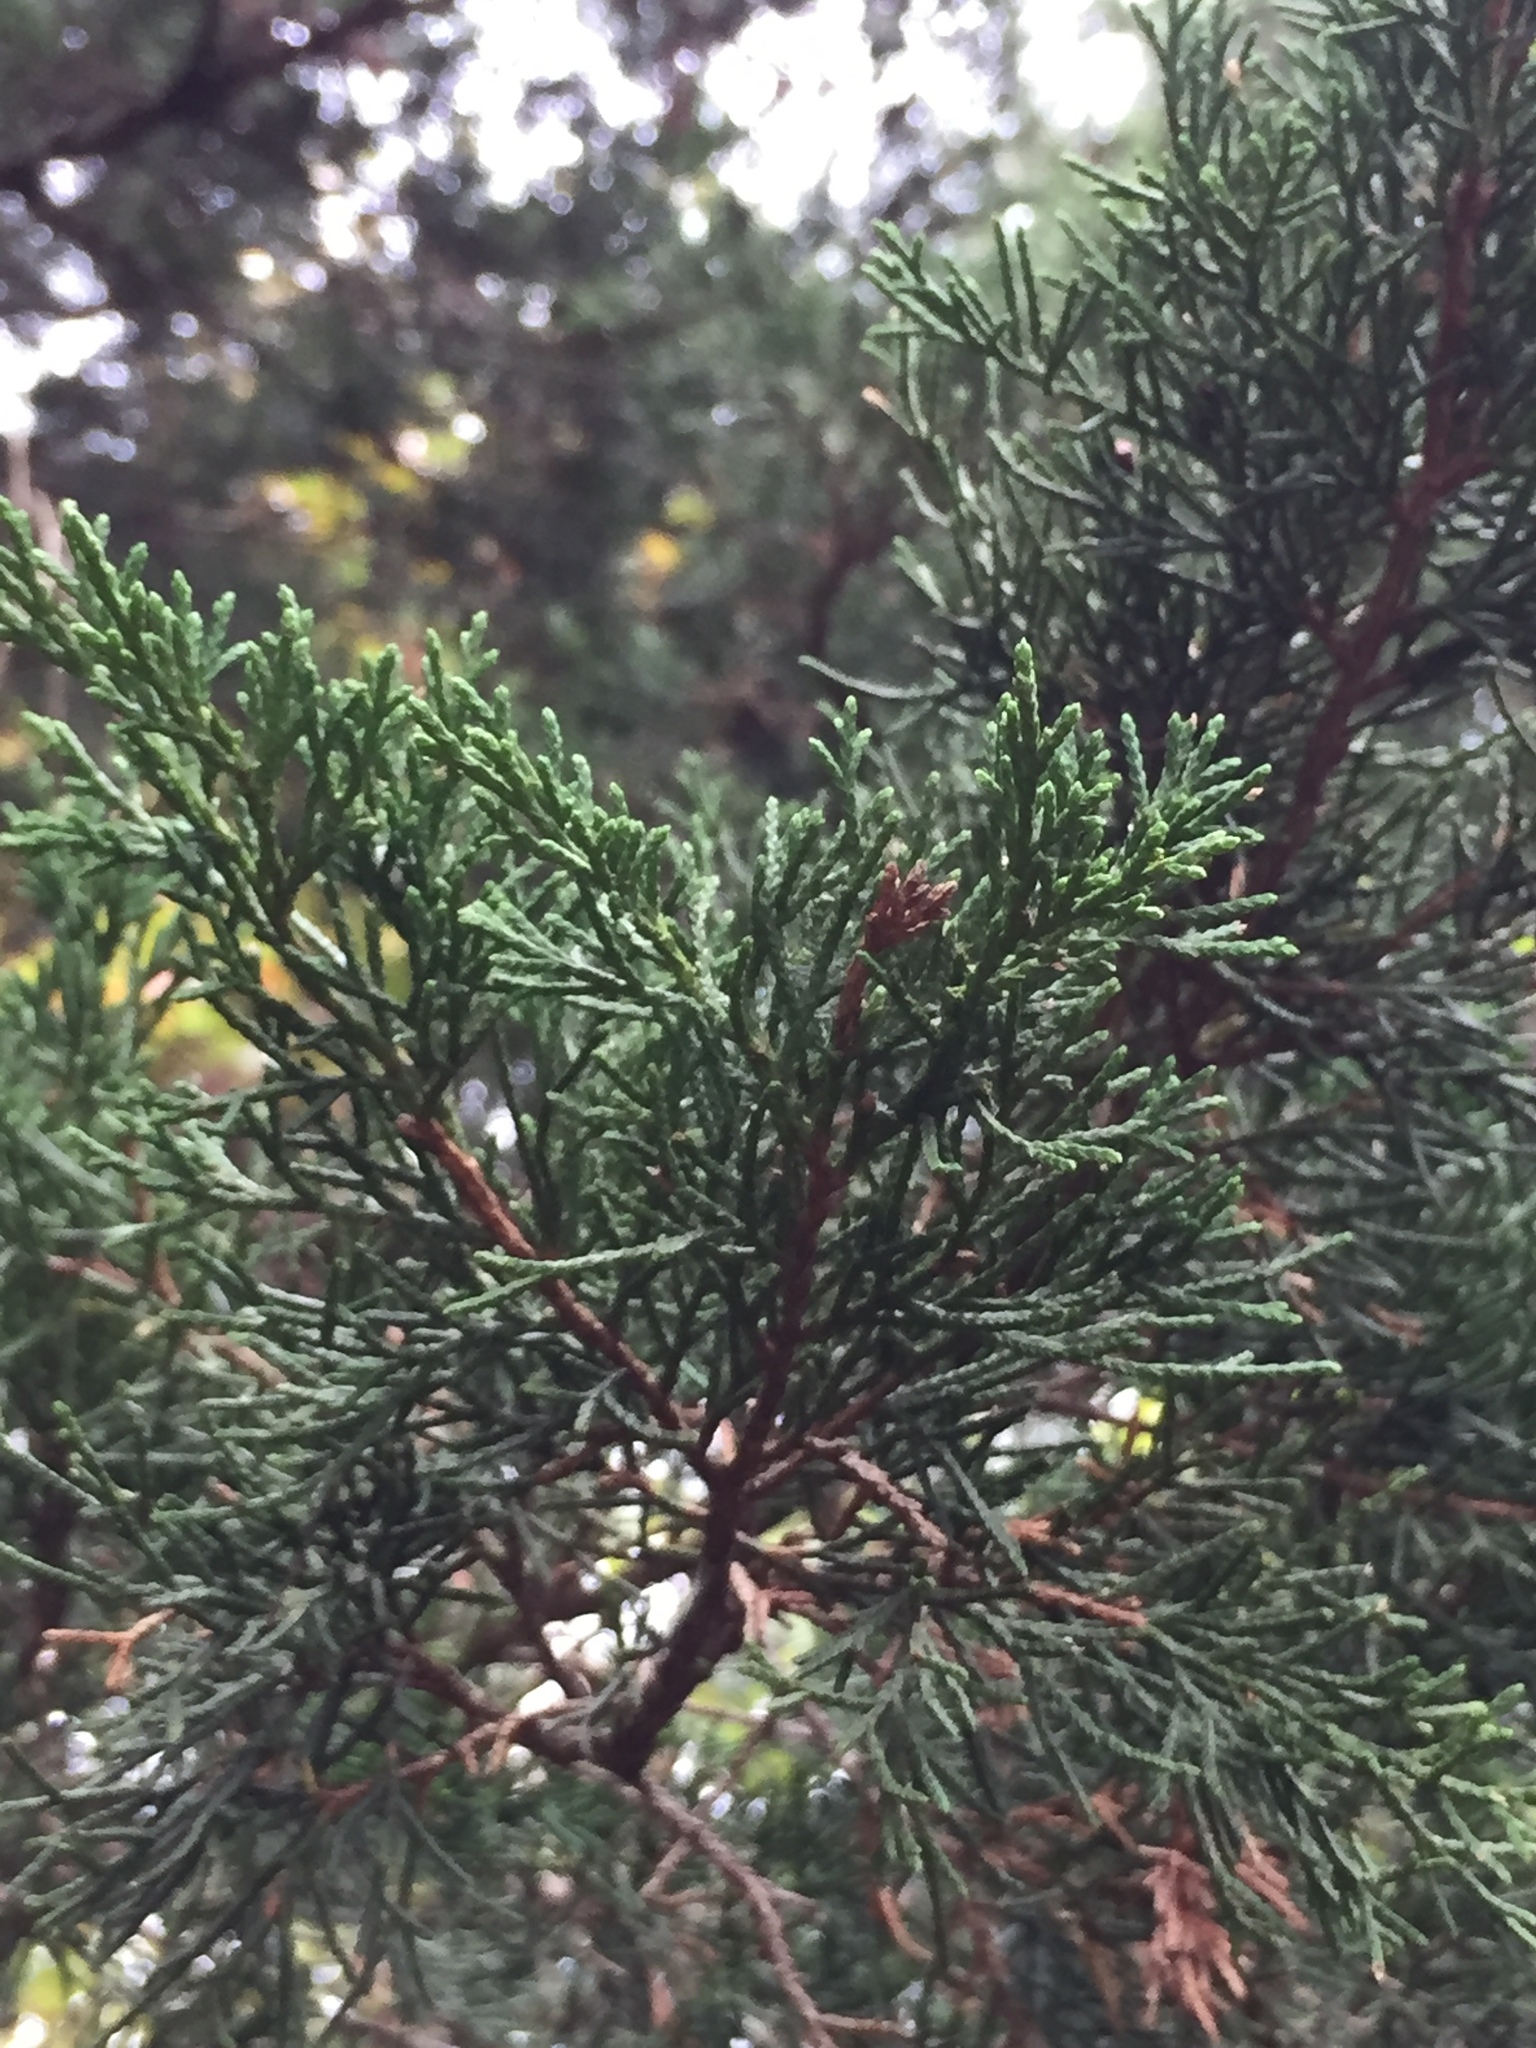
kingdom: Plantae
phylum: Tracheophyta
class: Pinopsida
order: Pinales
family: Cupressaceae
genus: Juniperus
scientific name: Juniperus virginiana
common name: Red juniper
